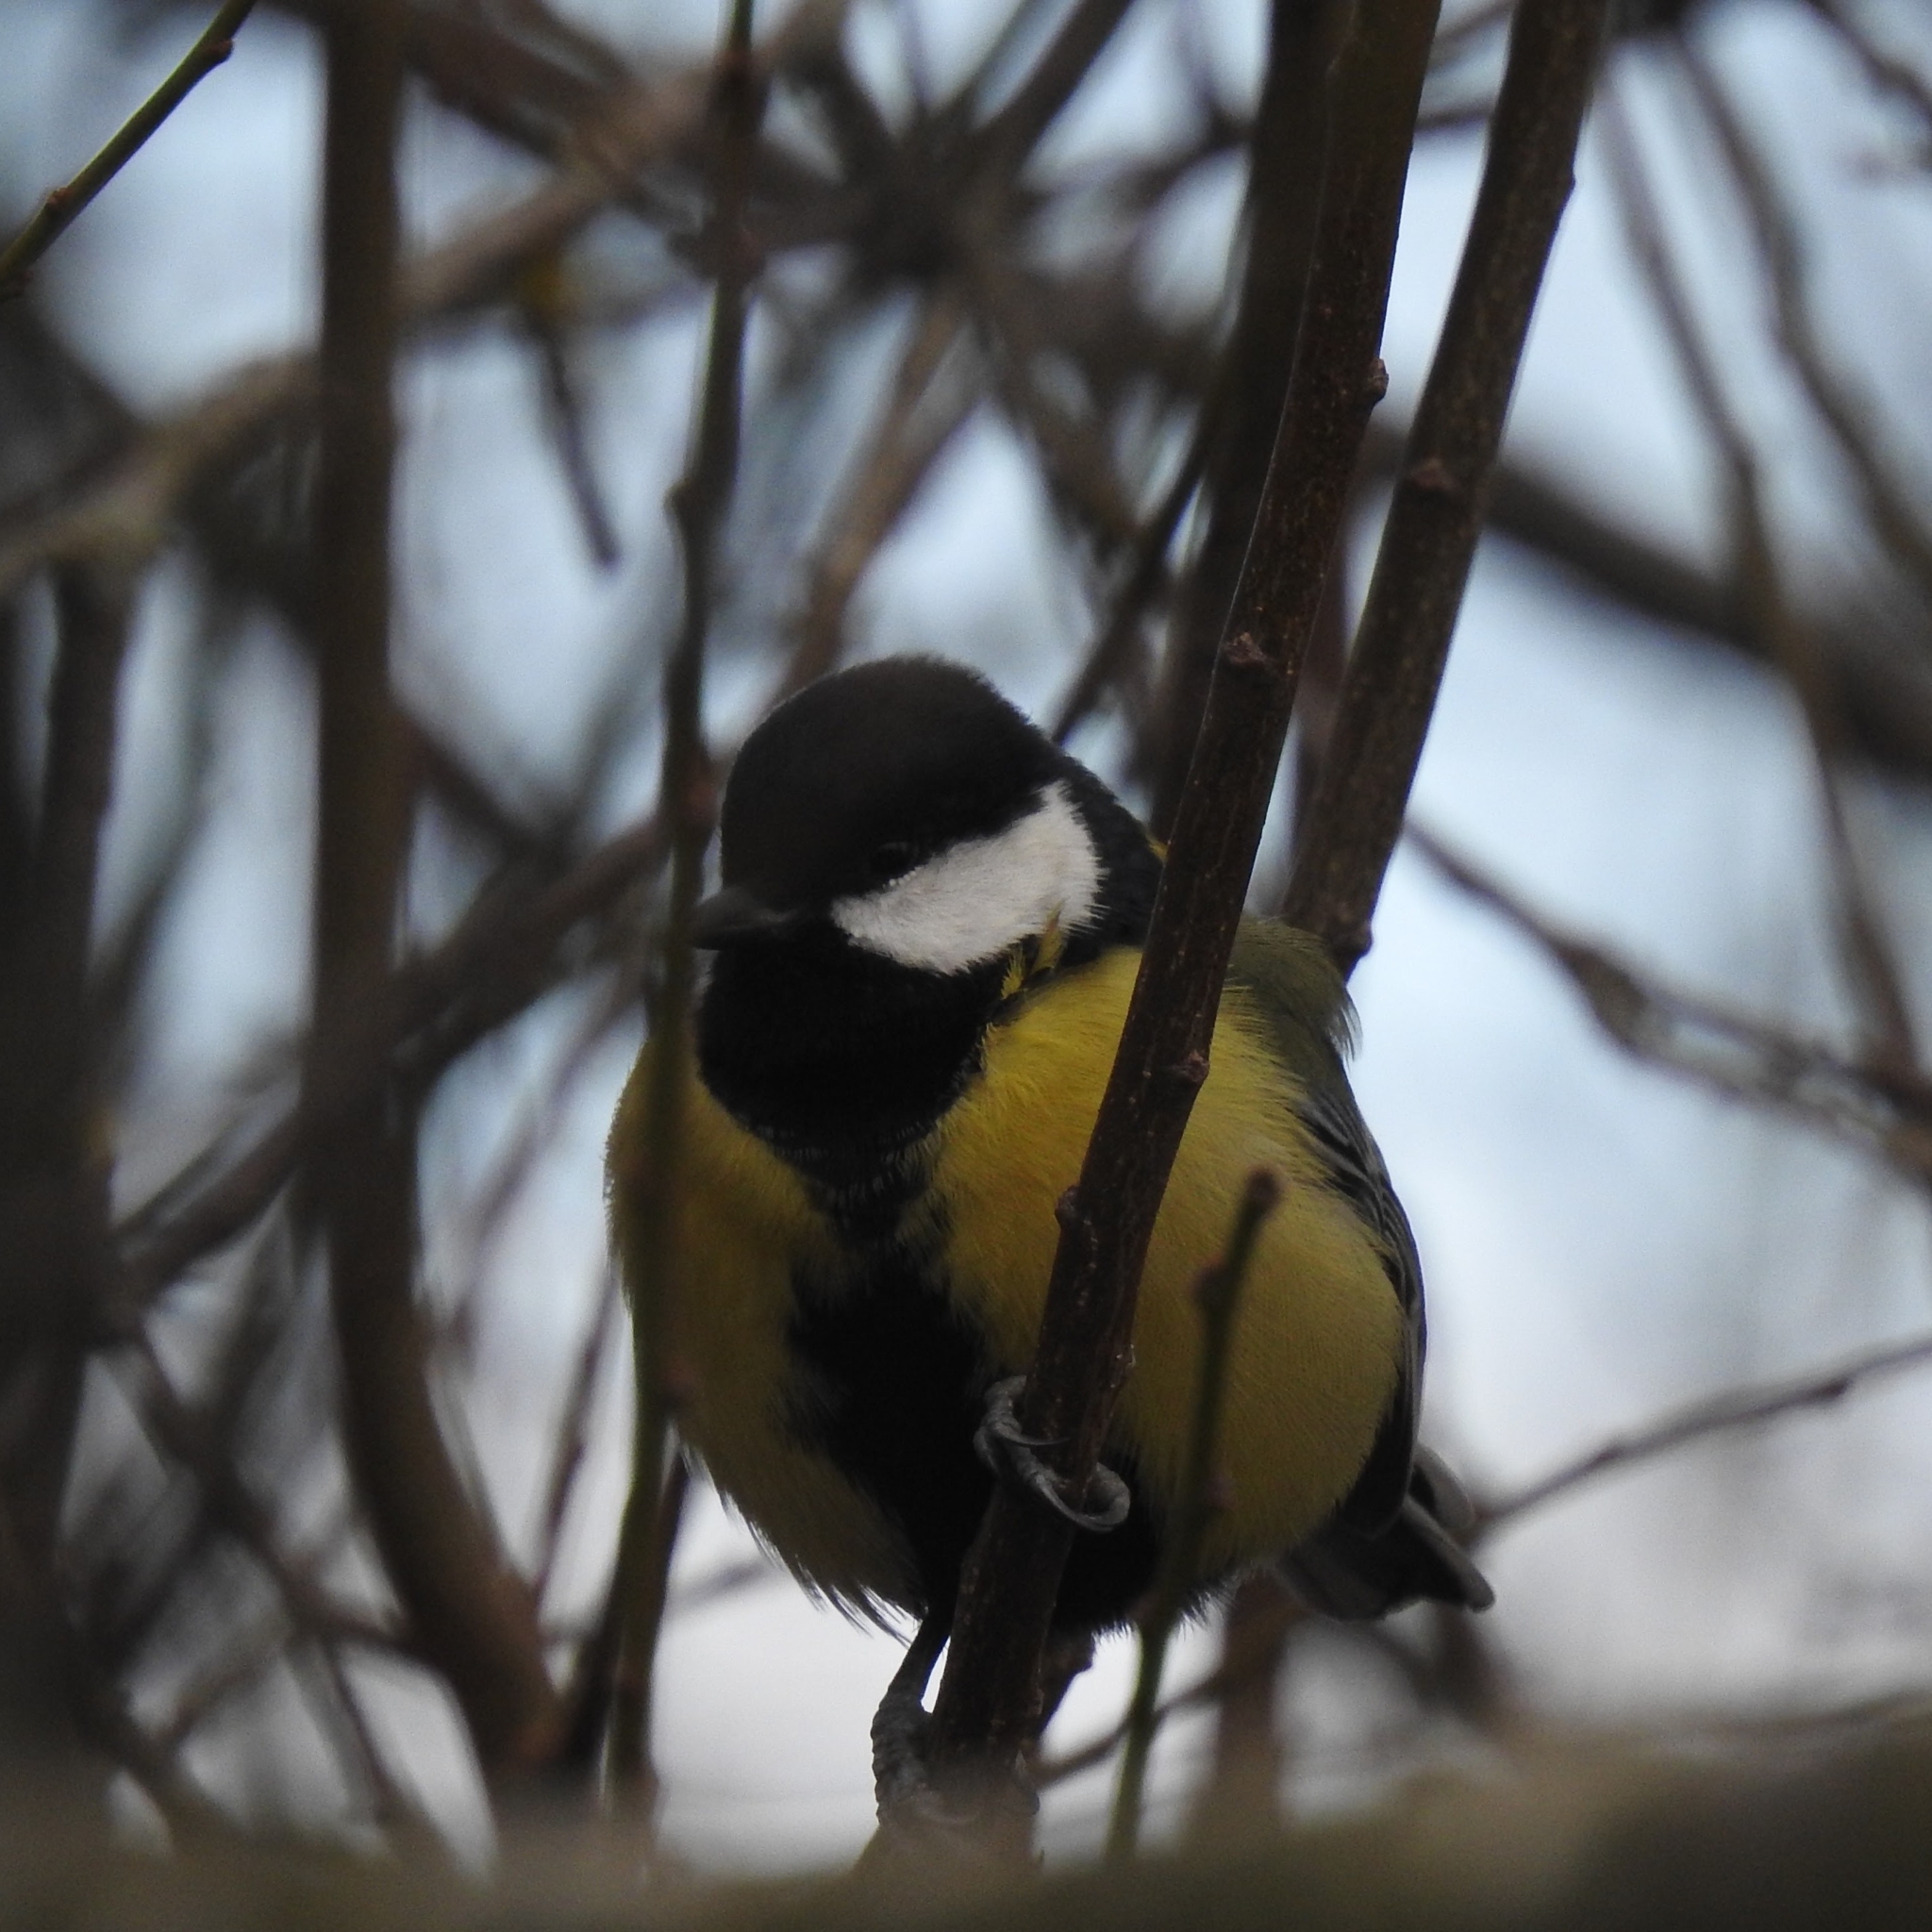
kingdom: Animalia
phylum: Chordata
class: Aves
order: Passeriformes
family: Paridae
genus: Parus
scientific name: Parus major
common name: Great tit
